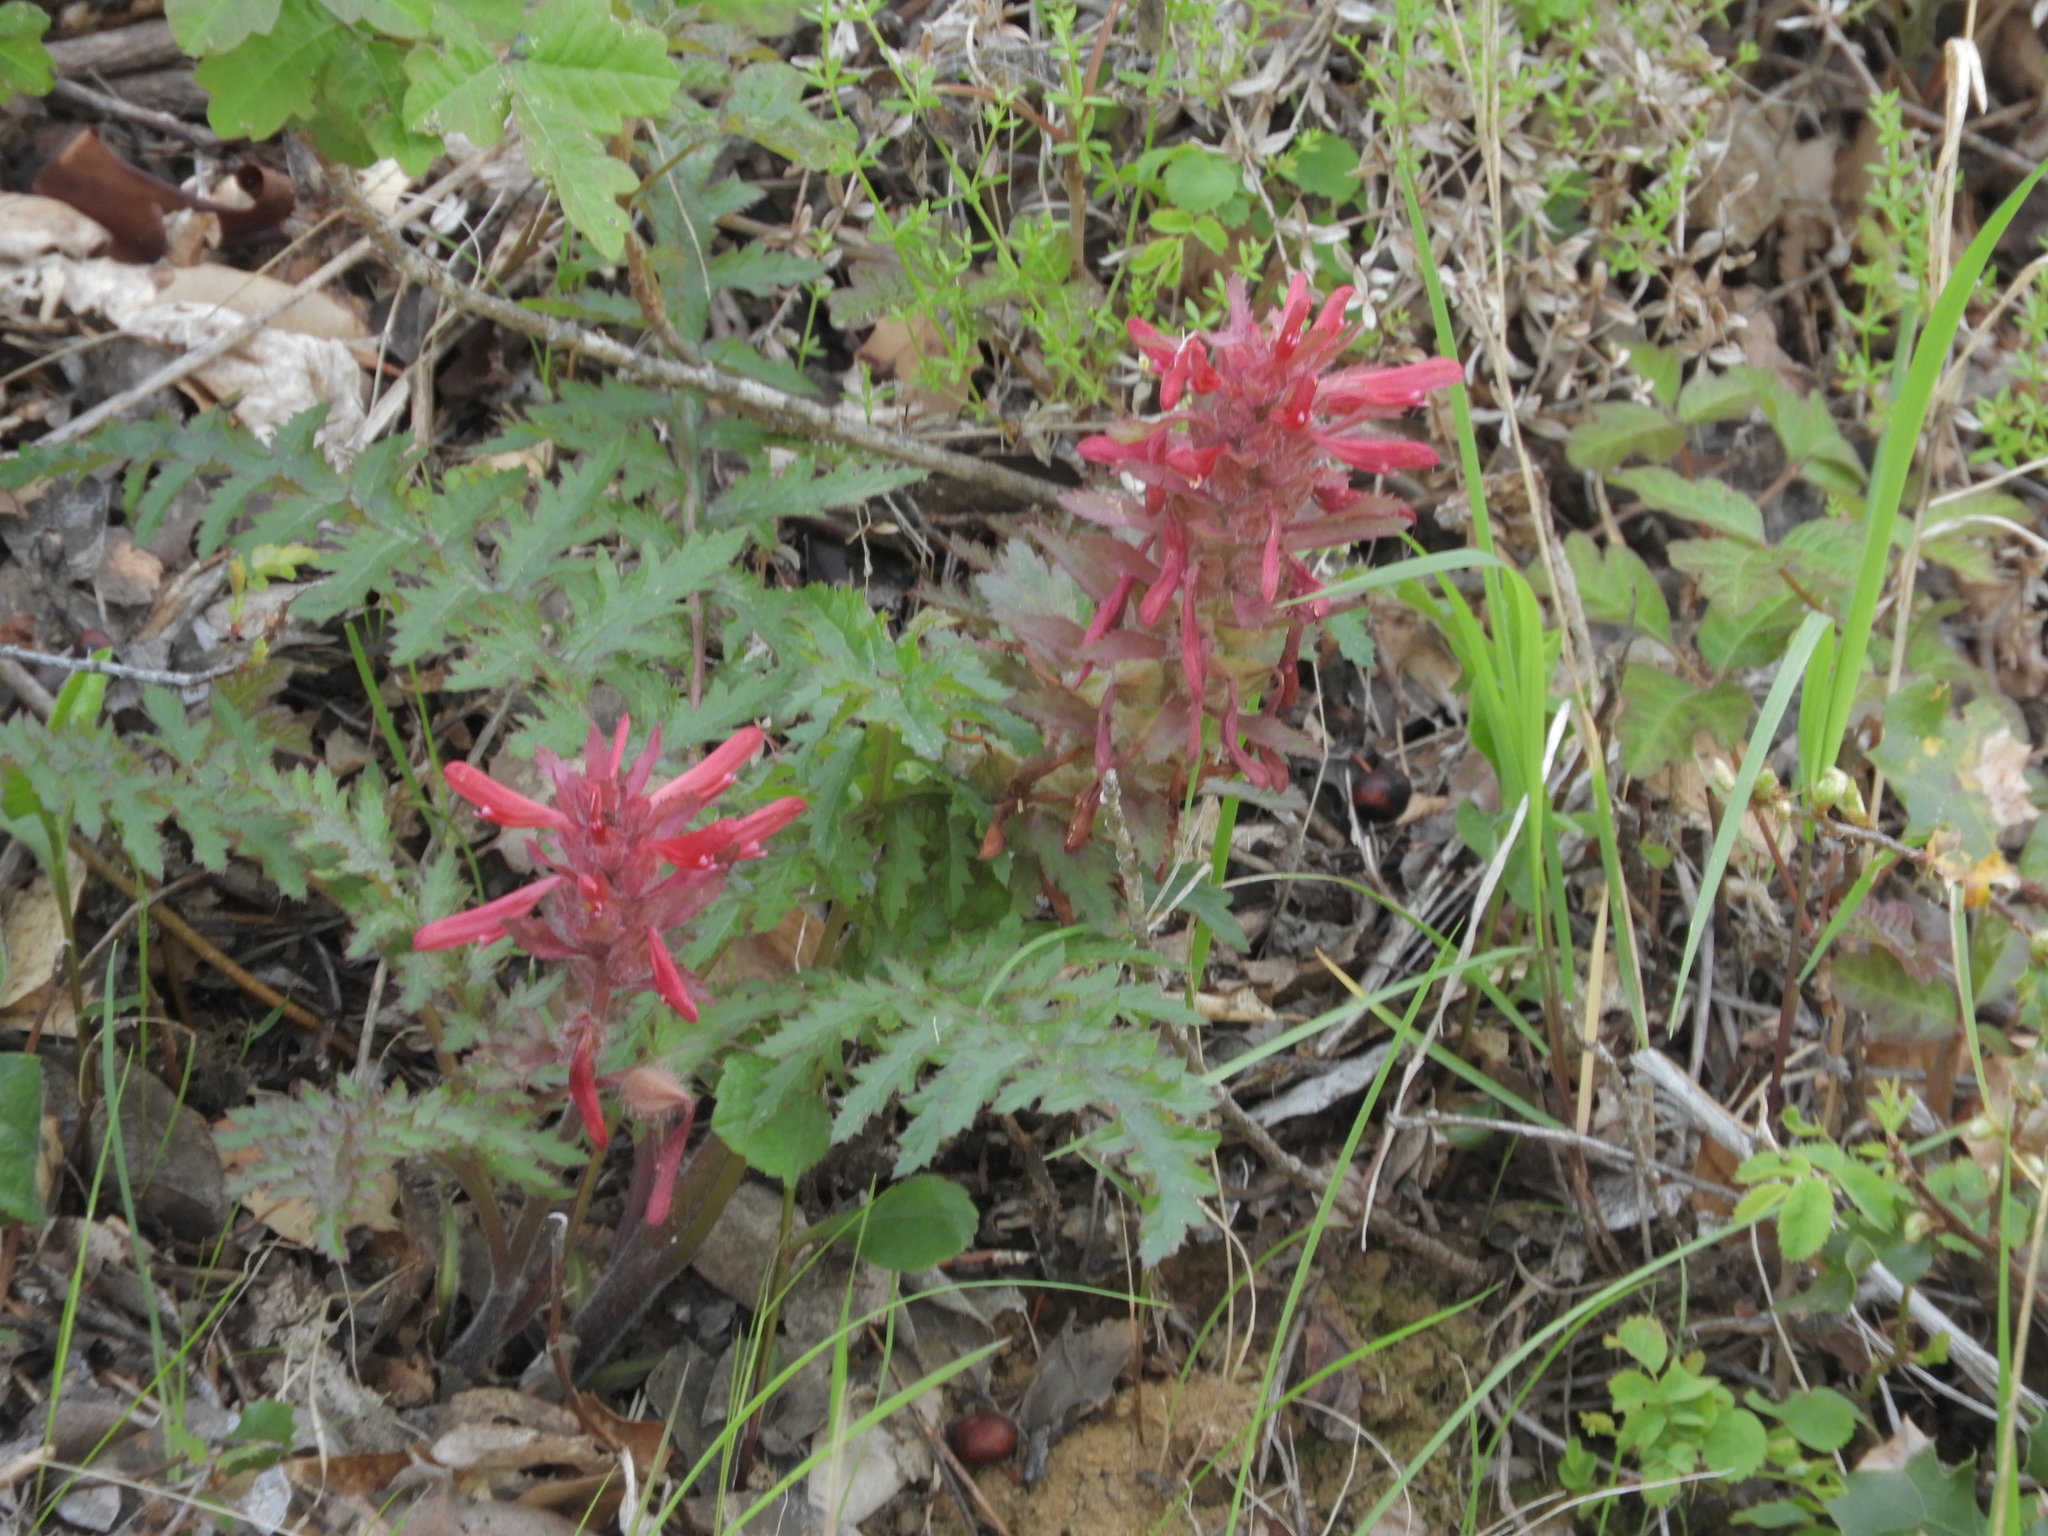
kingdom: Plantae
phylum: Tracheophyta
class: Magnoliopsida
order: Lamiales
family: Orobanchaceae
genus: Pedicularis
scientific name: Pedicularis densiflora
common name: Indian warrior
